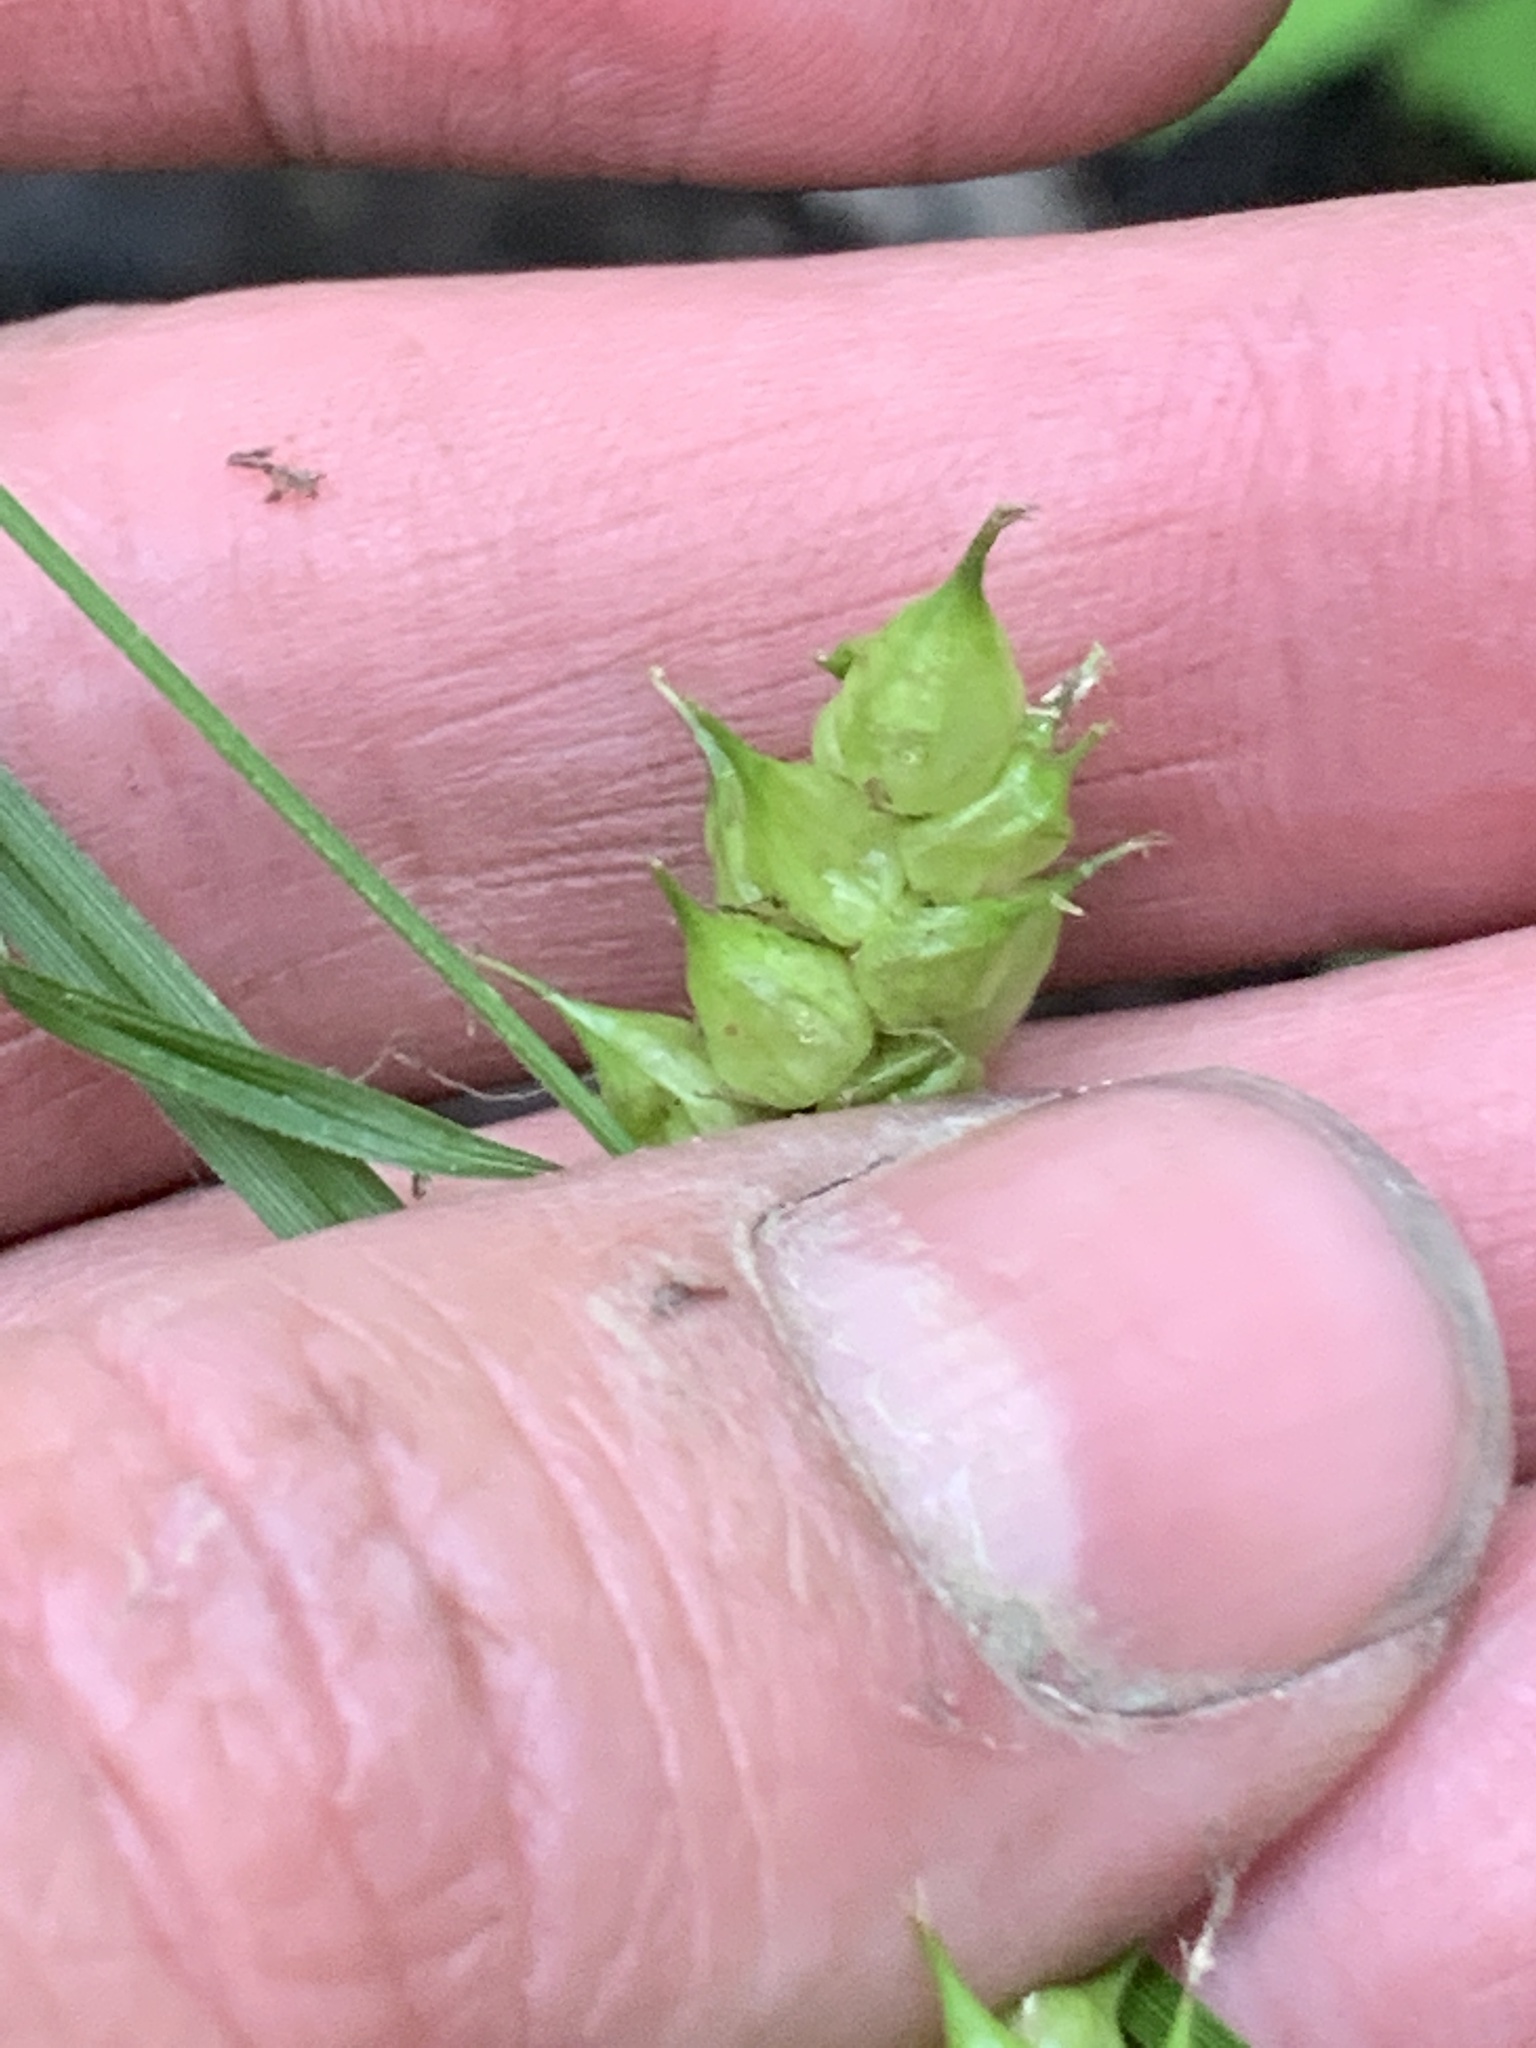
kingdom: Plantae
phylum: Tracheophyta
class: Liliopsida
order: Poales
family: Cyperaceae
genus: Carex
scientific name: Carex tuckermanii
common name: Tuckerman's sedge
